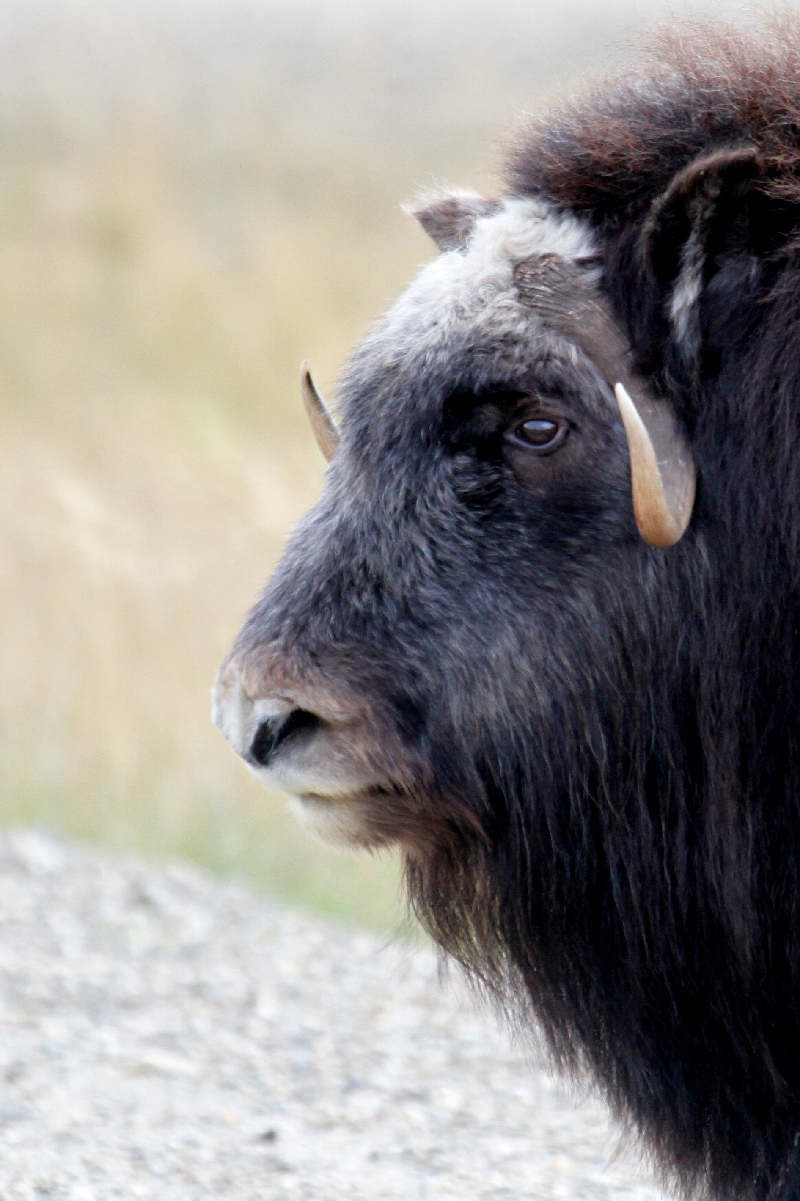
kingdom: Animalia
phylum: Chordata
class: Mammalia
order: Artiodactyla
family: Bovidae
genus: Ovibos
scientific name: Ovibos moschatus
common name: Muskox
